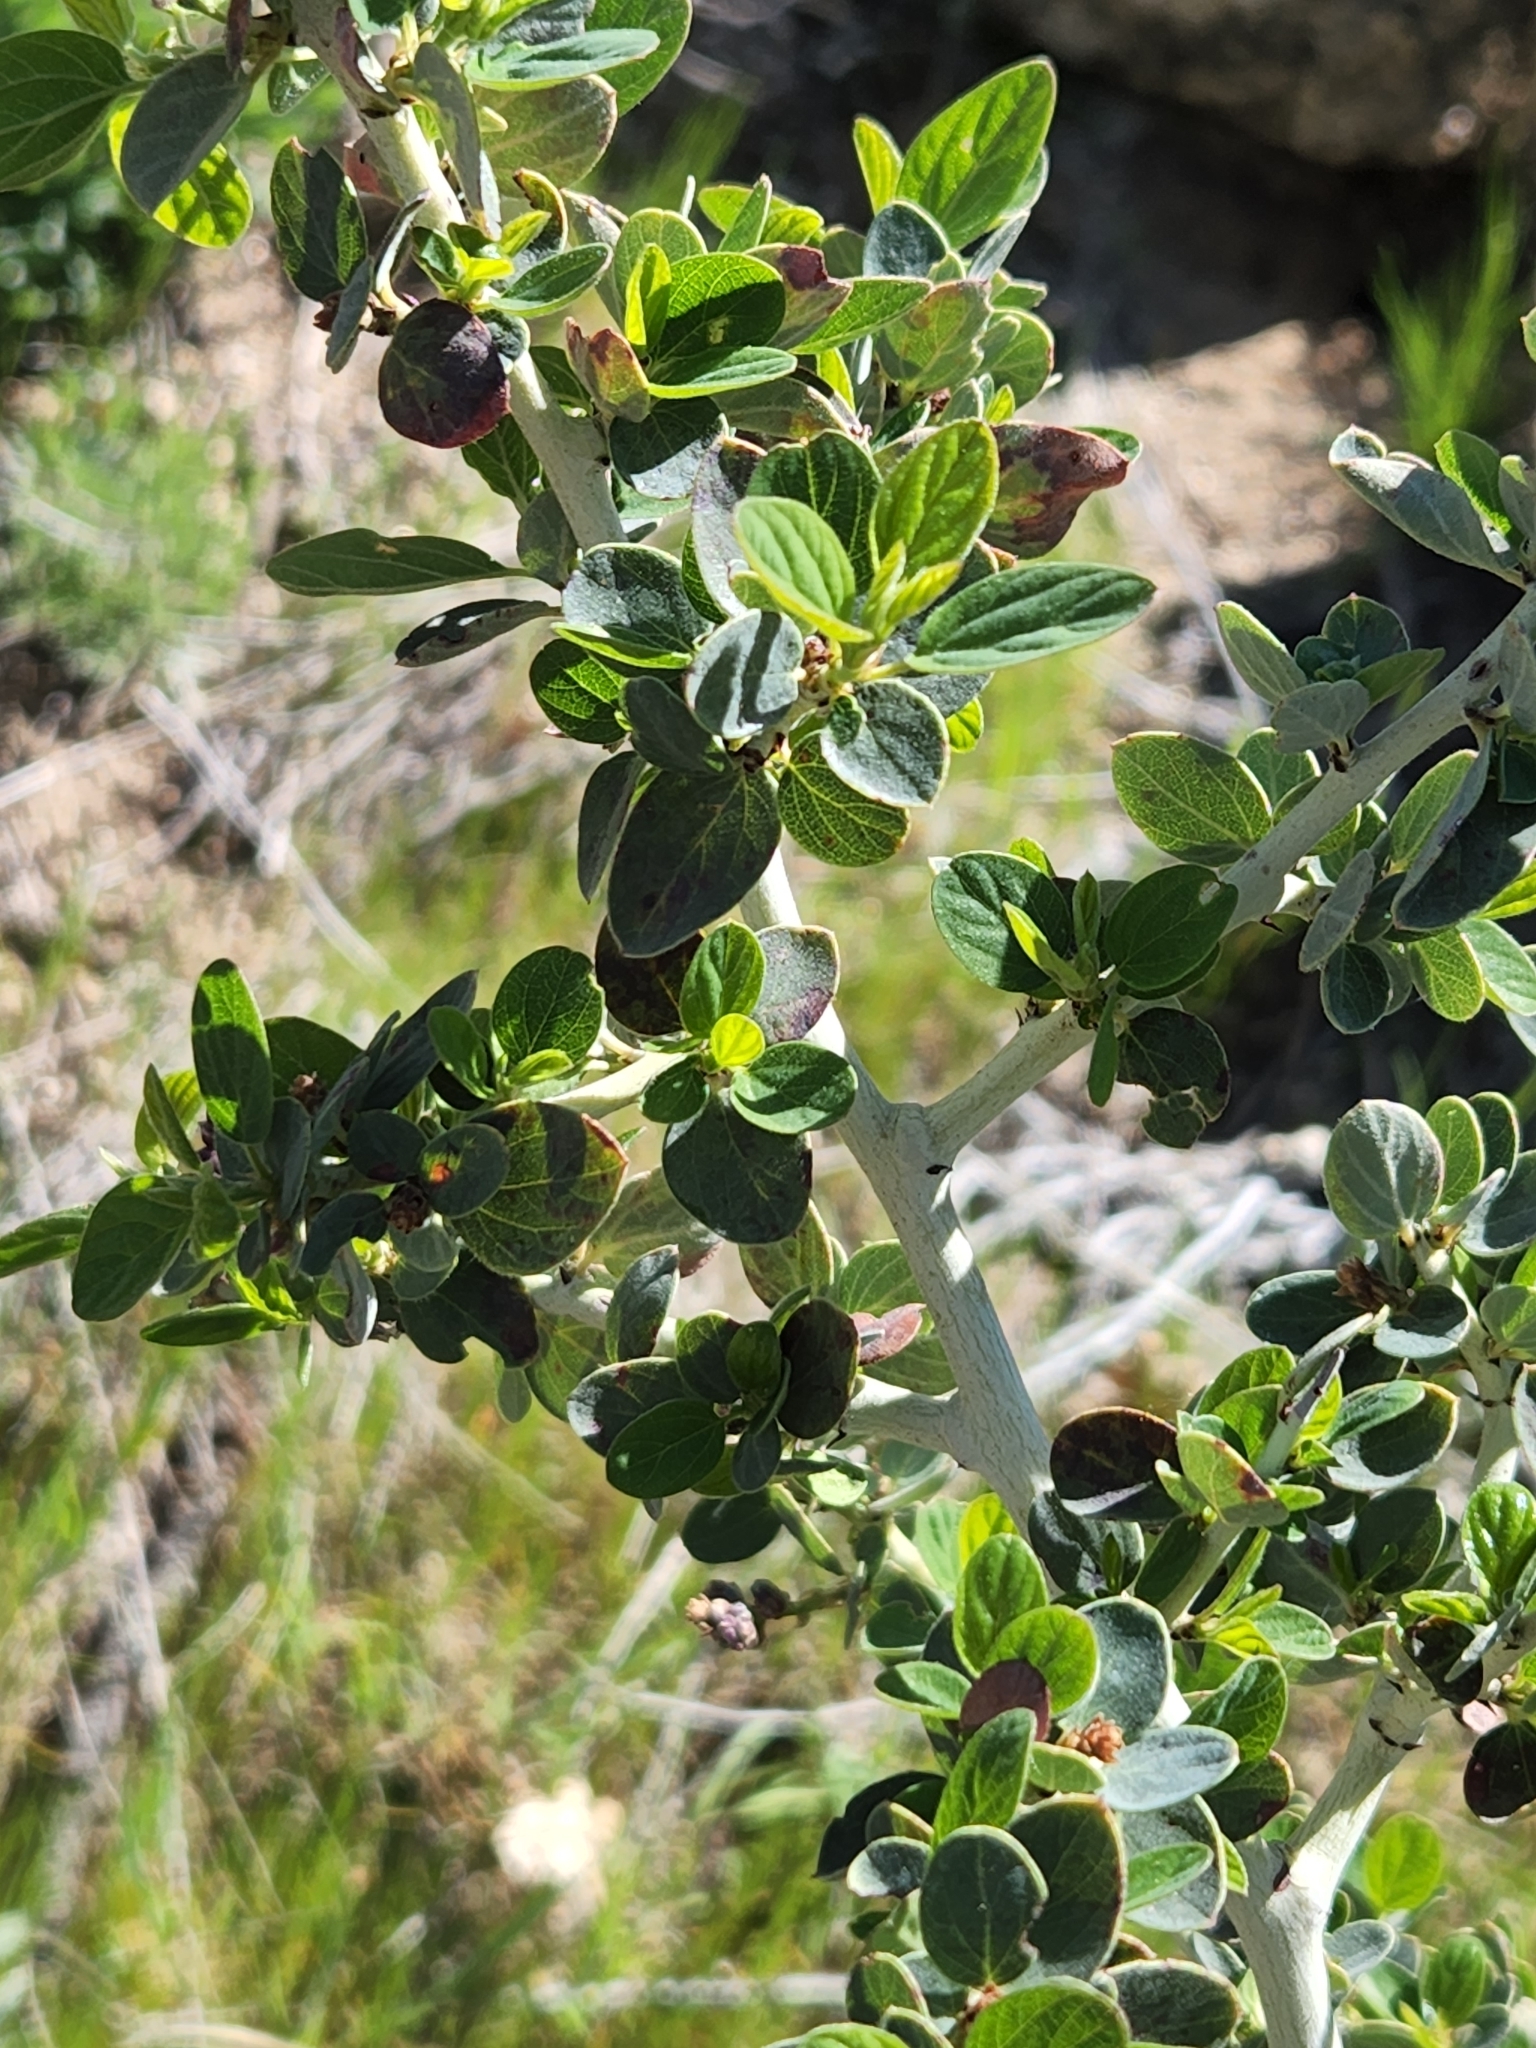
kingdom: Plantae
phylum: Tracheophyta
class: Magnoliopsida
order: Rosales
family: Rhamnaceae
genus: Ceanothus
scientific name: Ceanothus leucodermis
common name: Chaparral whitethorn
